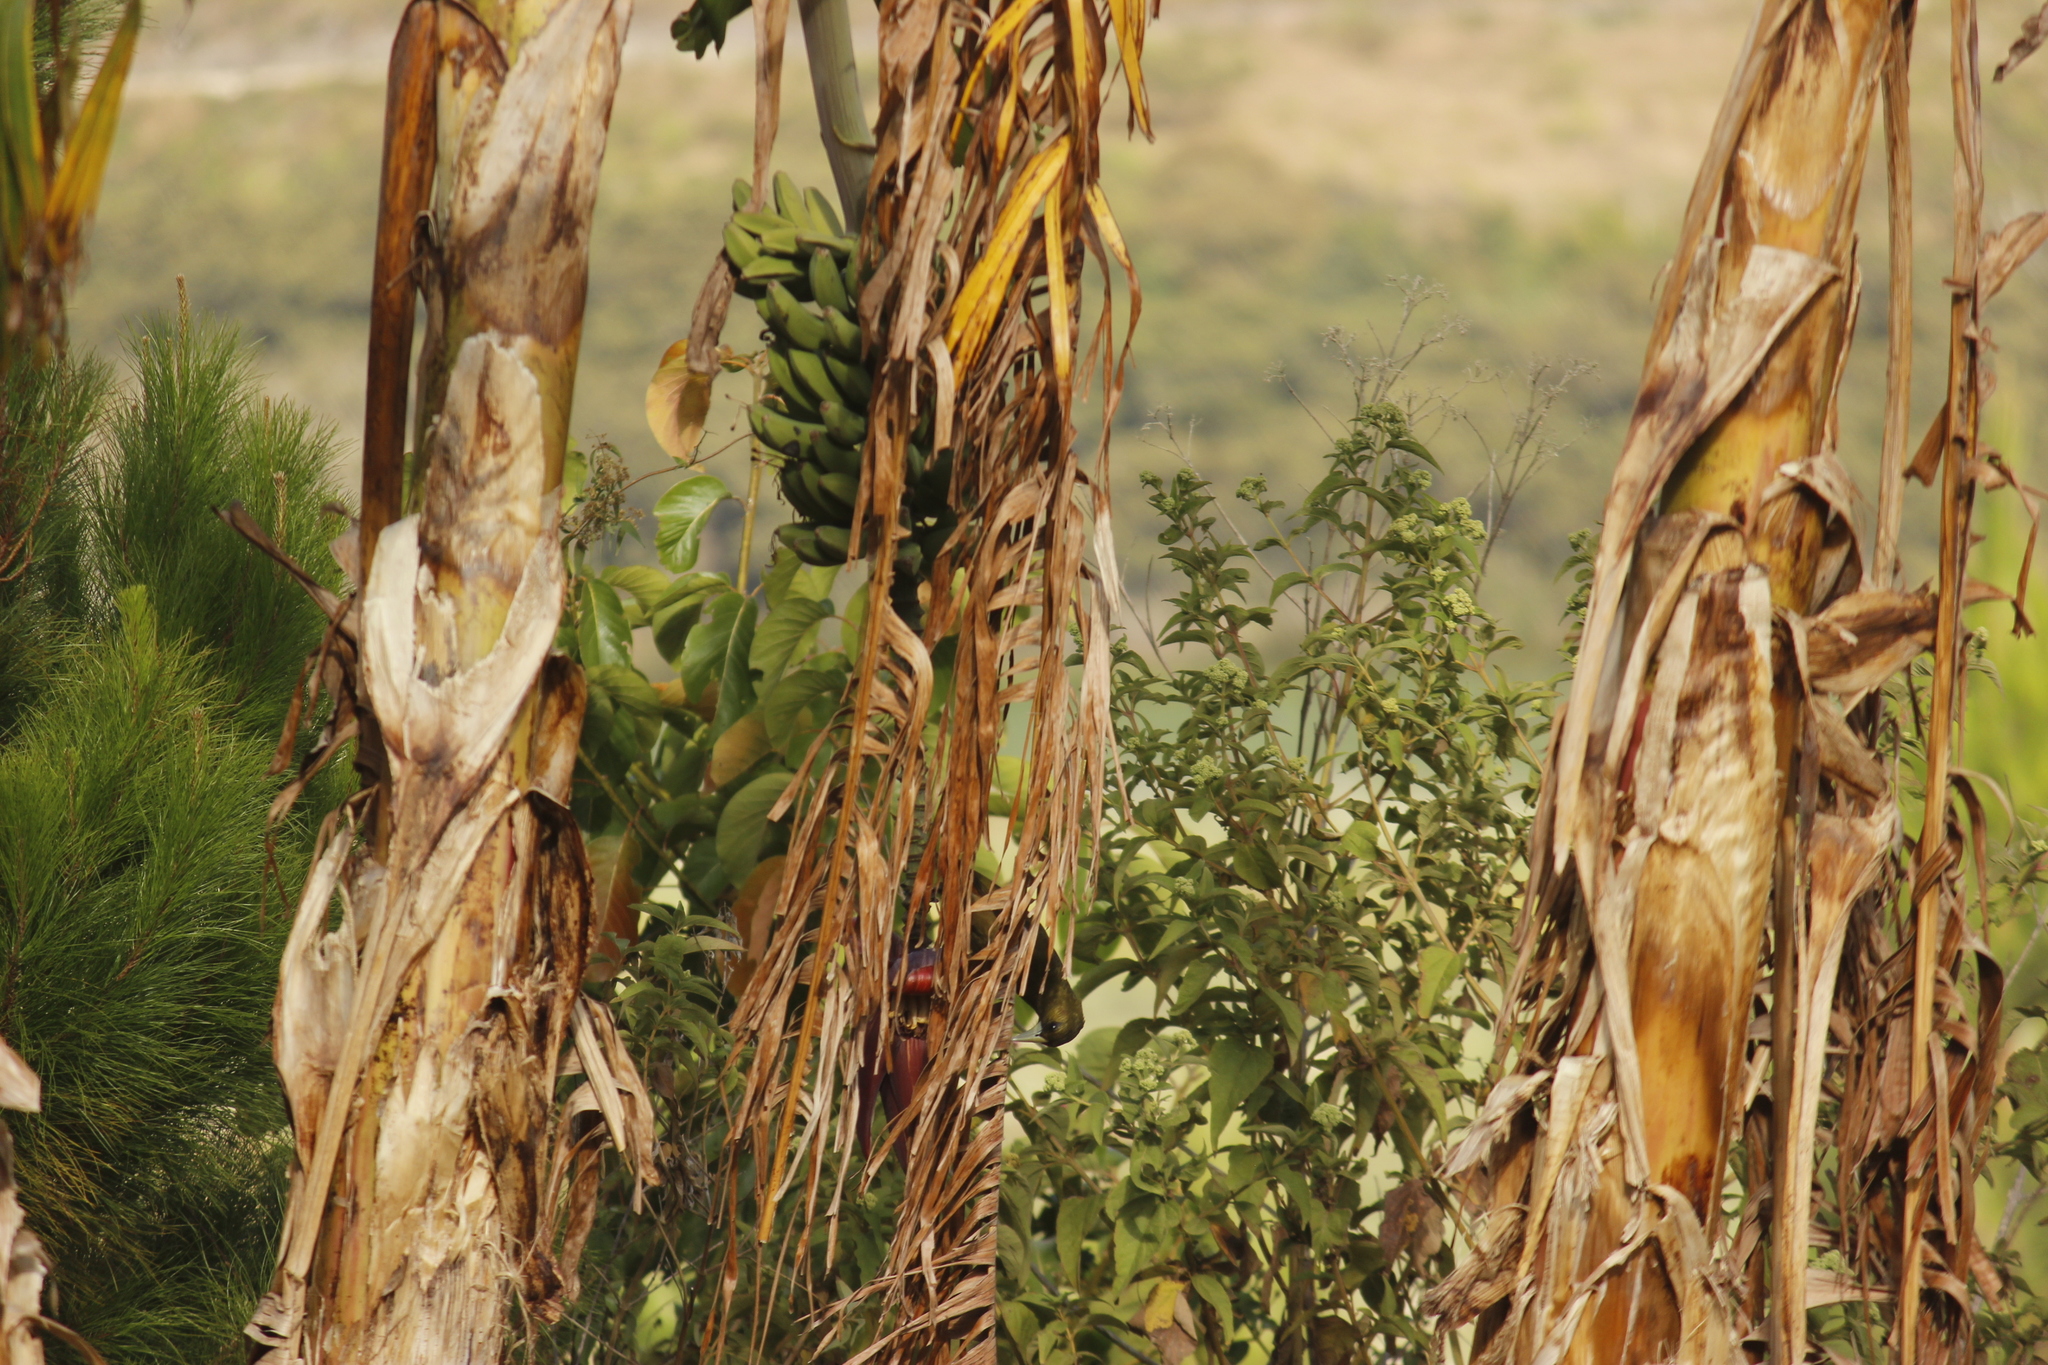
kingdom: Animalia
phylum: Chordata
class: Aves
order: Passeriformes
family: Icteridae
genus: Psarocolius
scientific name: Psarocolius atrovirens
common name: Dusky-green oropendola
